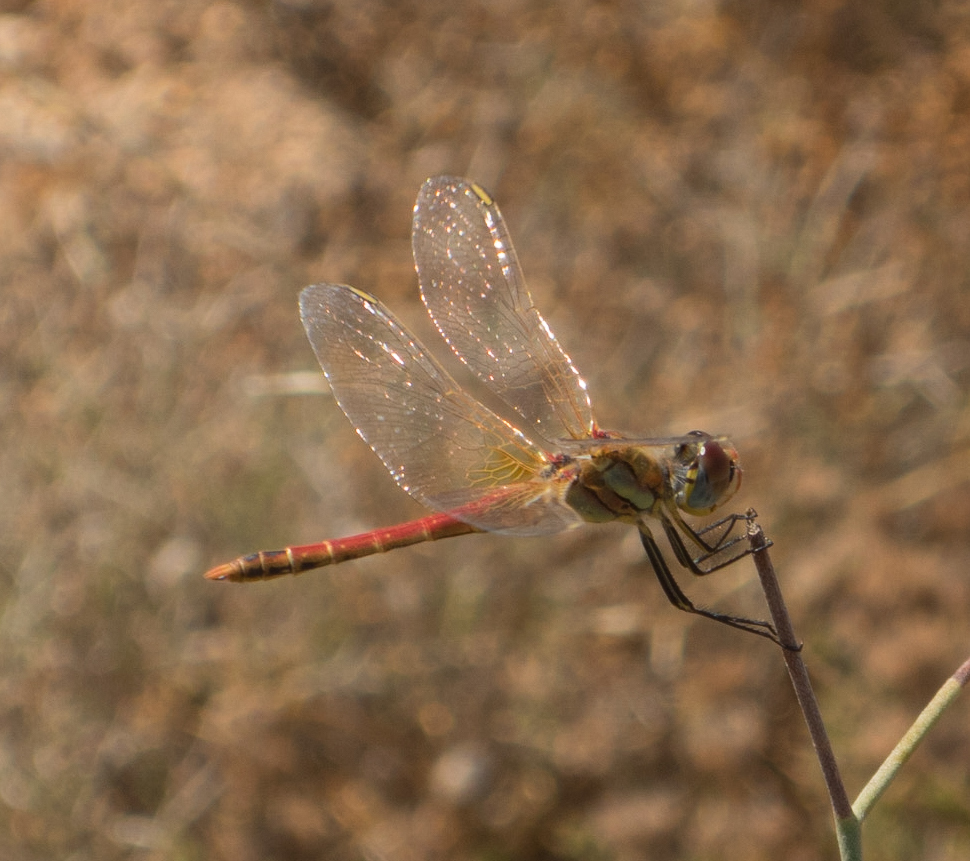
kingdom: Animalia
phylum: Arthropoda
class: Insecta
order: Odonata
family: Libellulidae
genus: Sympetrum
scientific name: Sympetrum fonscolombii
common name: Red-veined darter
